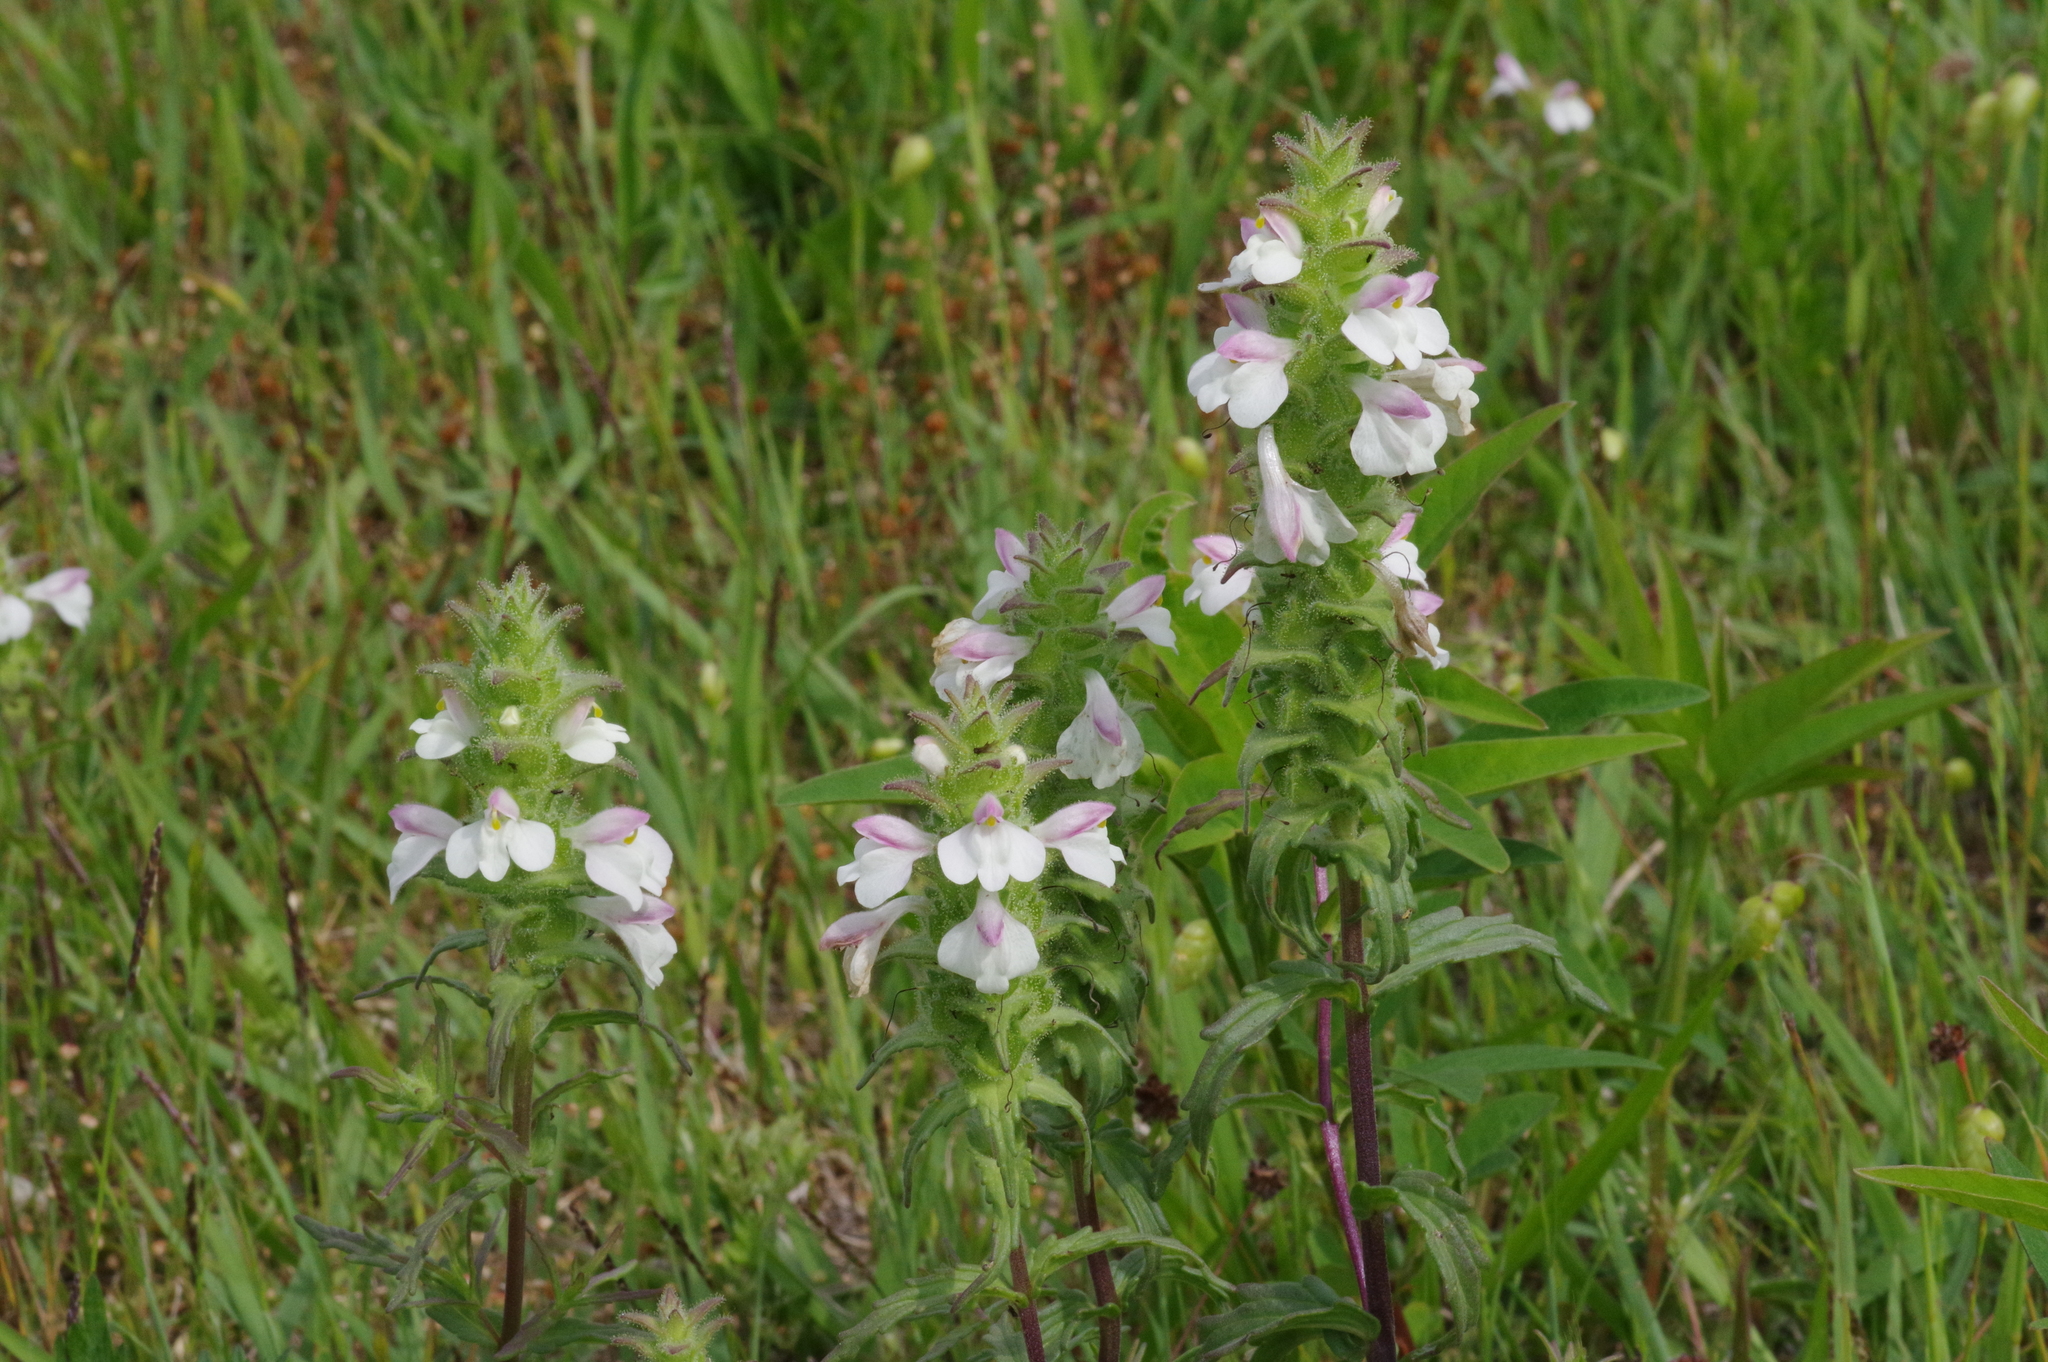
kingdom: Plantae
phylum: Tracheophyta
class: Magnoliopsida
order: Lamiales
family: Orobanchaceae
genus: Bellardia
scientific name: Bellardia trixago
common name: Mediterranean lineseed
